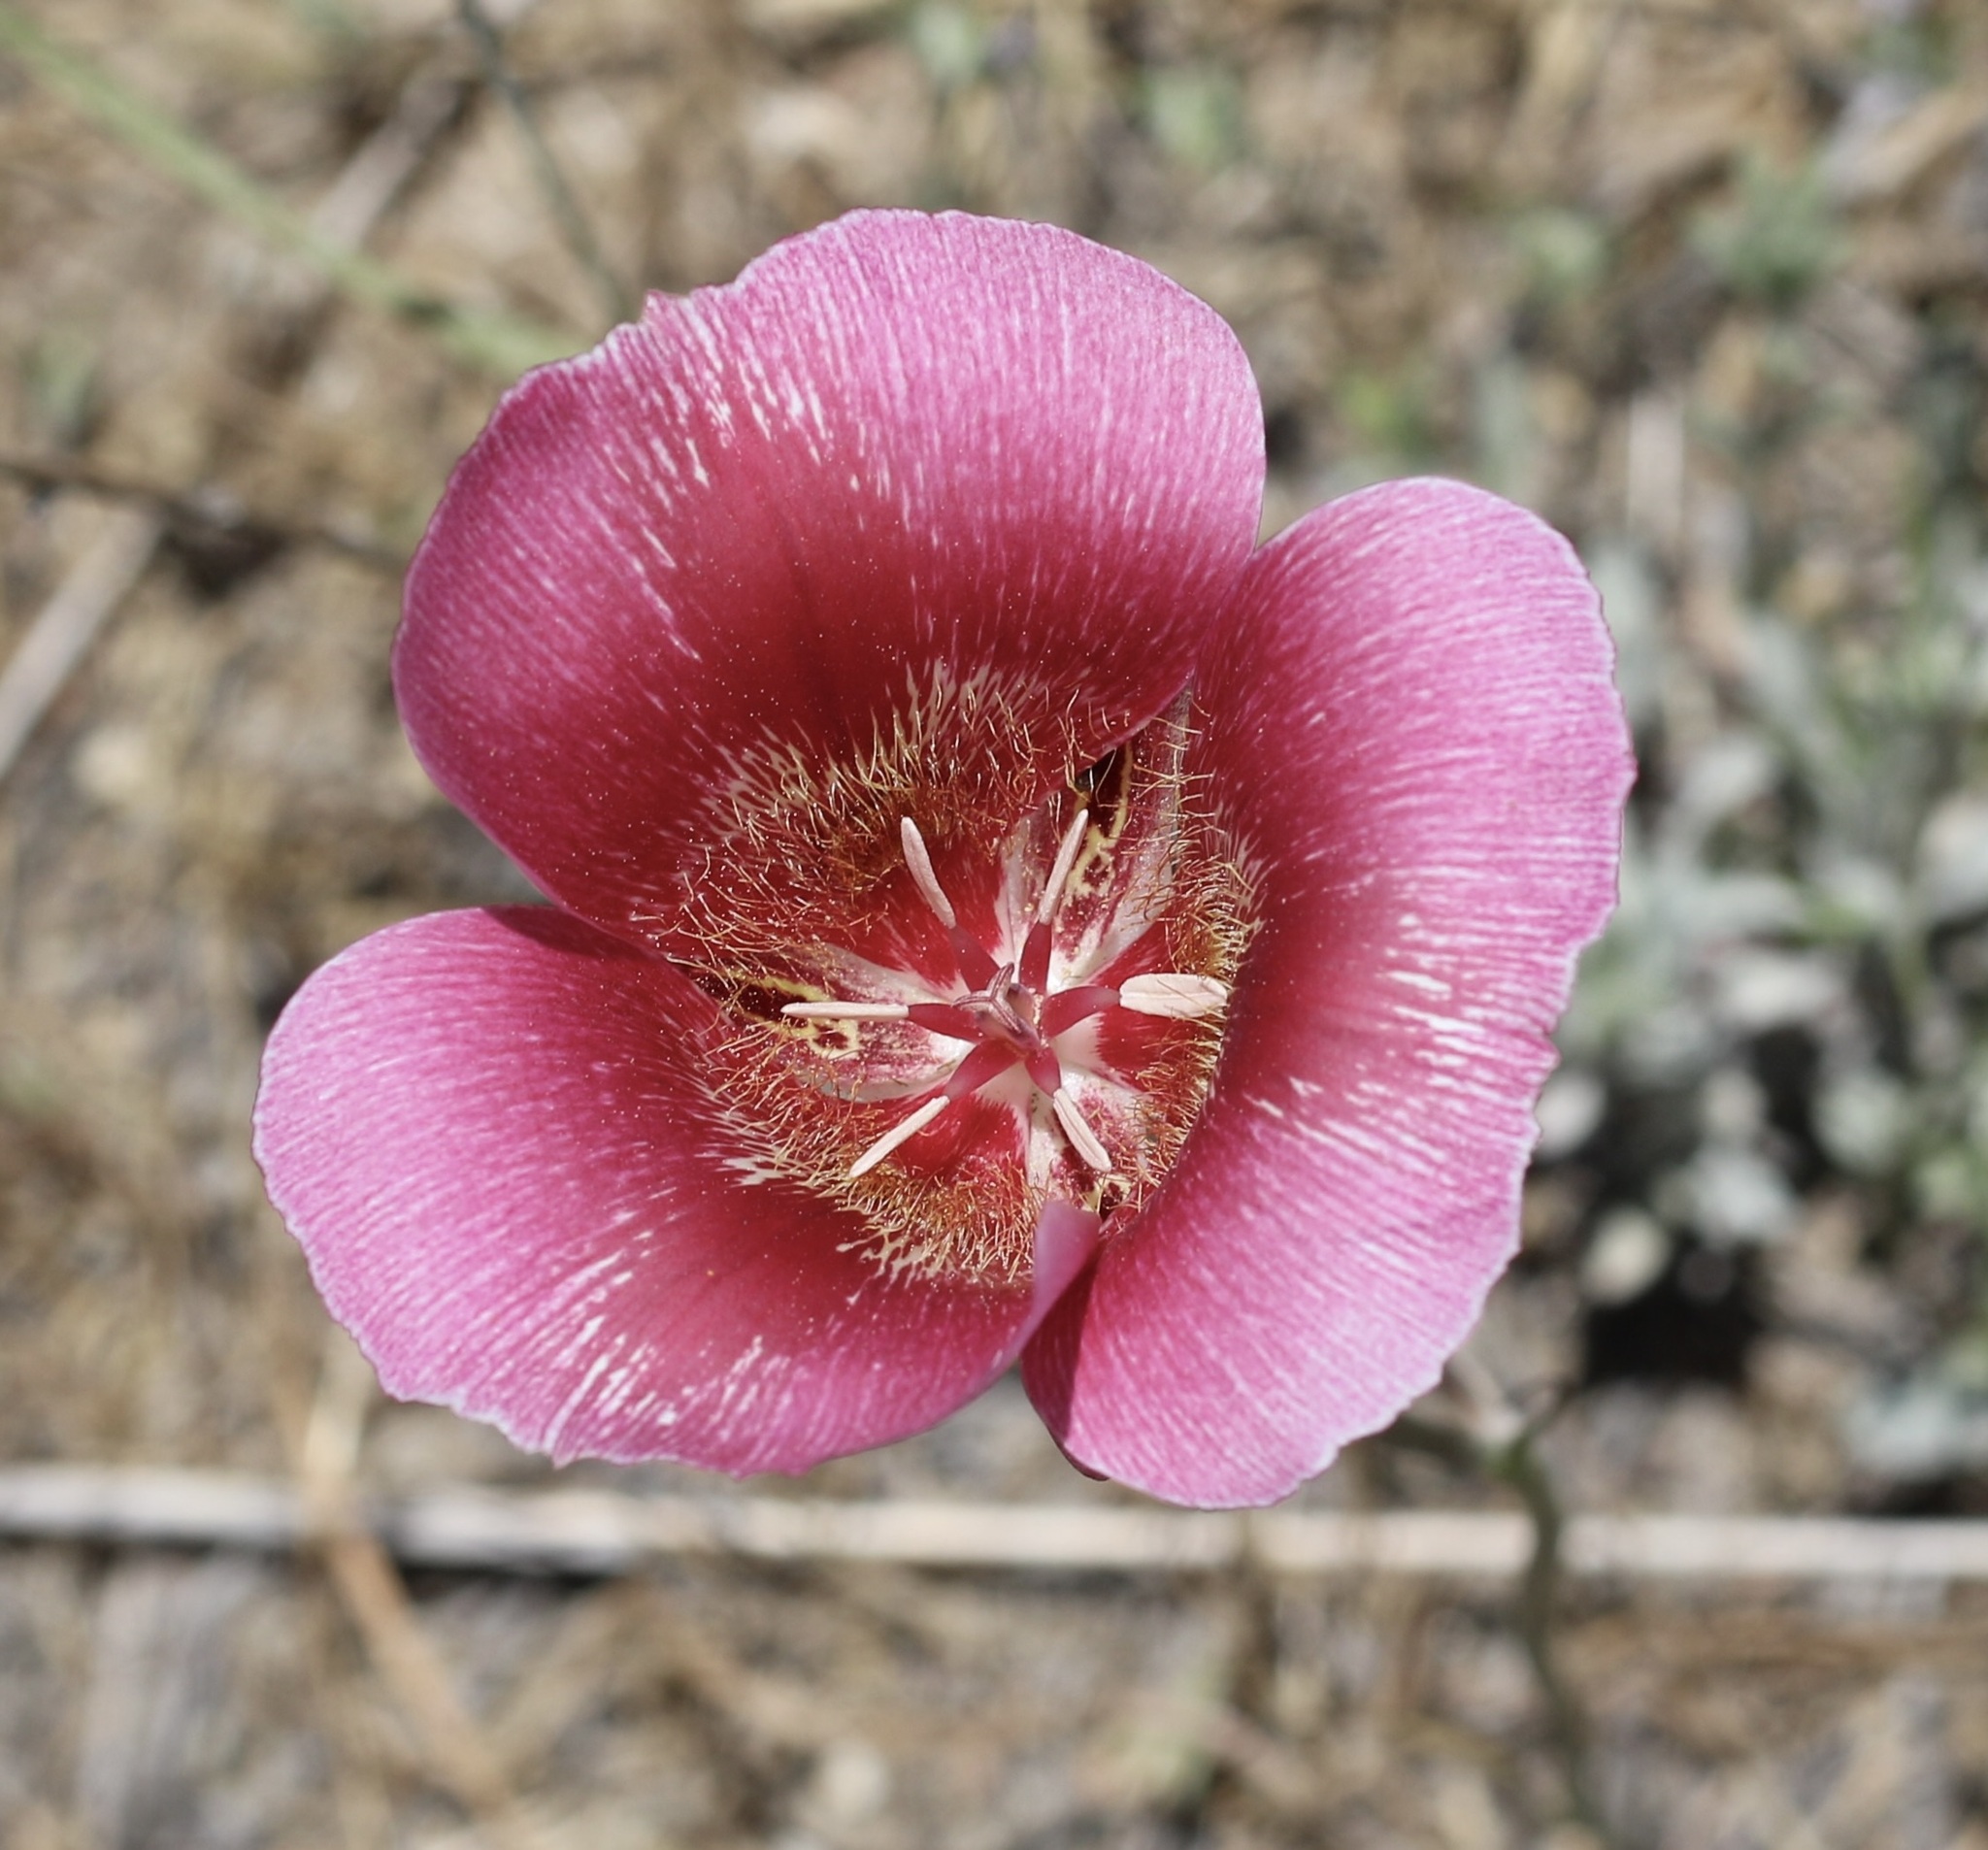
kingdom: Plantae
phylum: Tracheophyta
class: Liliopsida
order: Liliales
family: Liliaceae
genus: Calochortus
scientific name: Calochortus venustus
